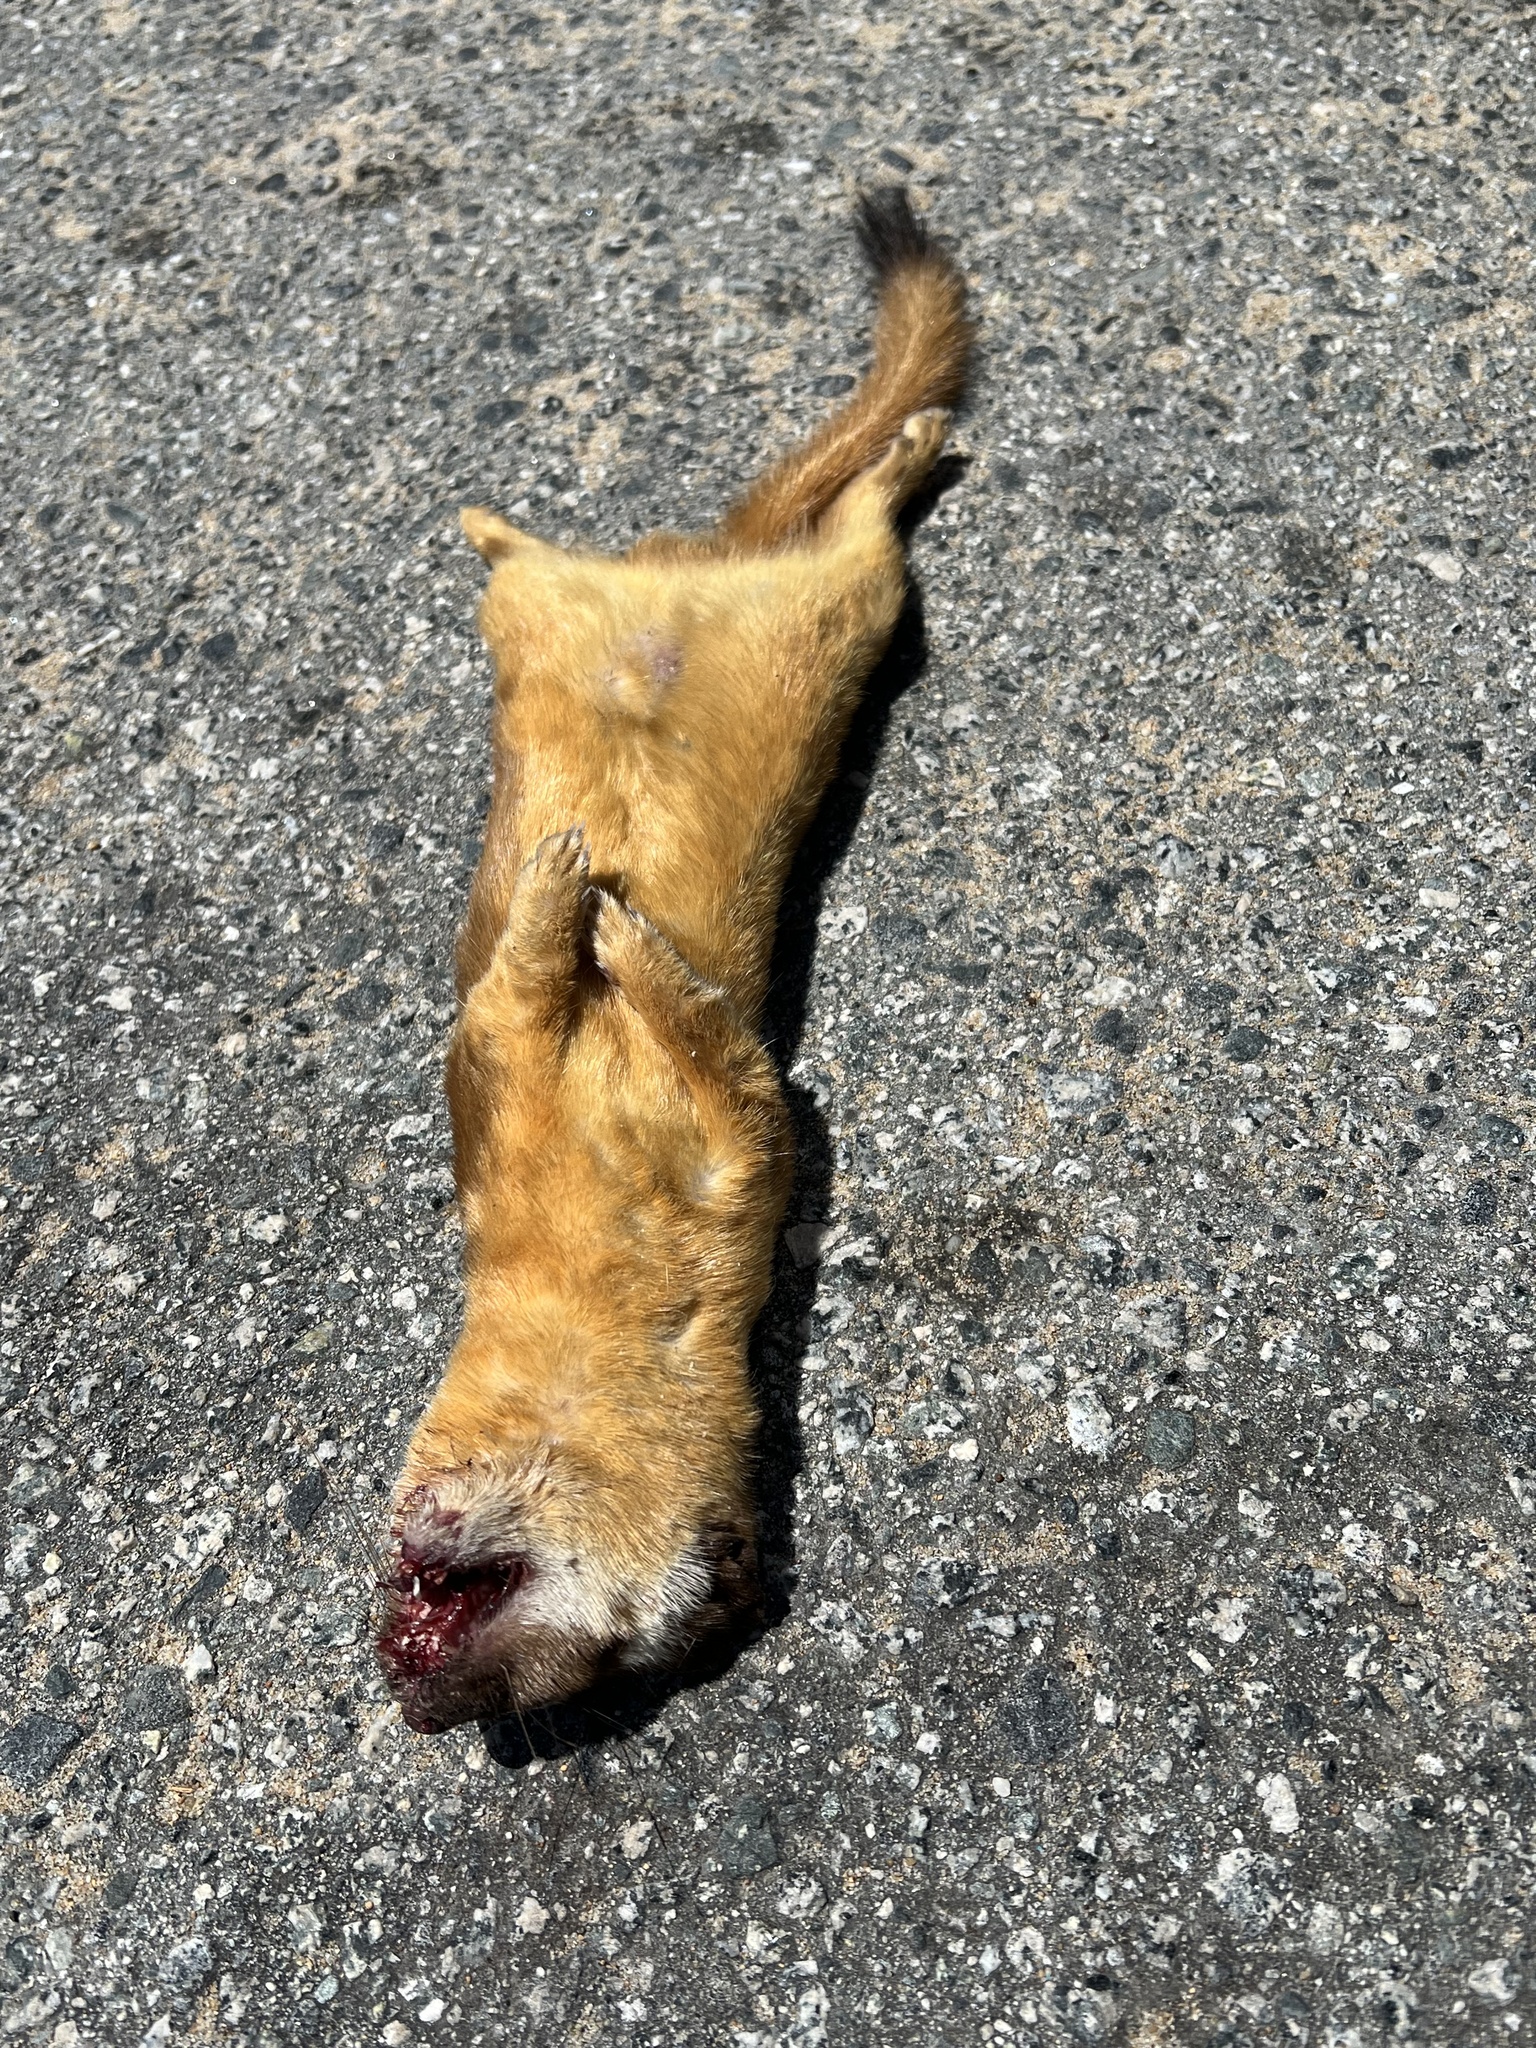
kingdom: Animalia
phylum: Chordata
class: Mammalia
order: Carnivora
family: Mustelidae
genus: Mustela
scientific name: Mustela
